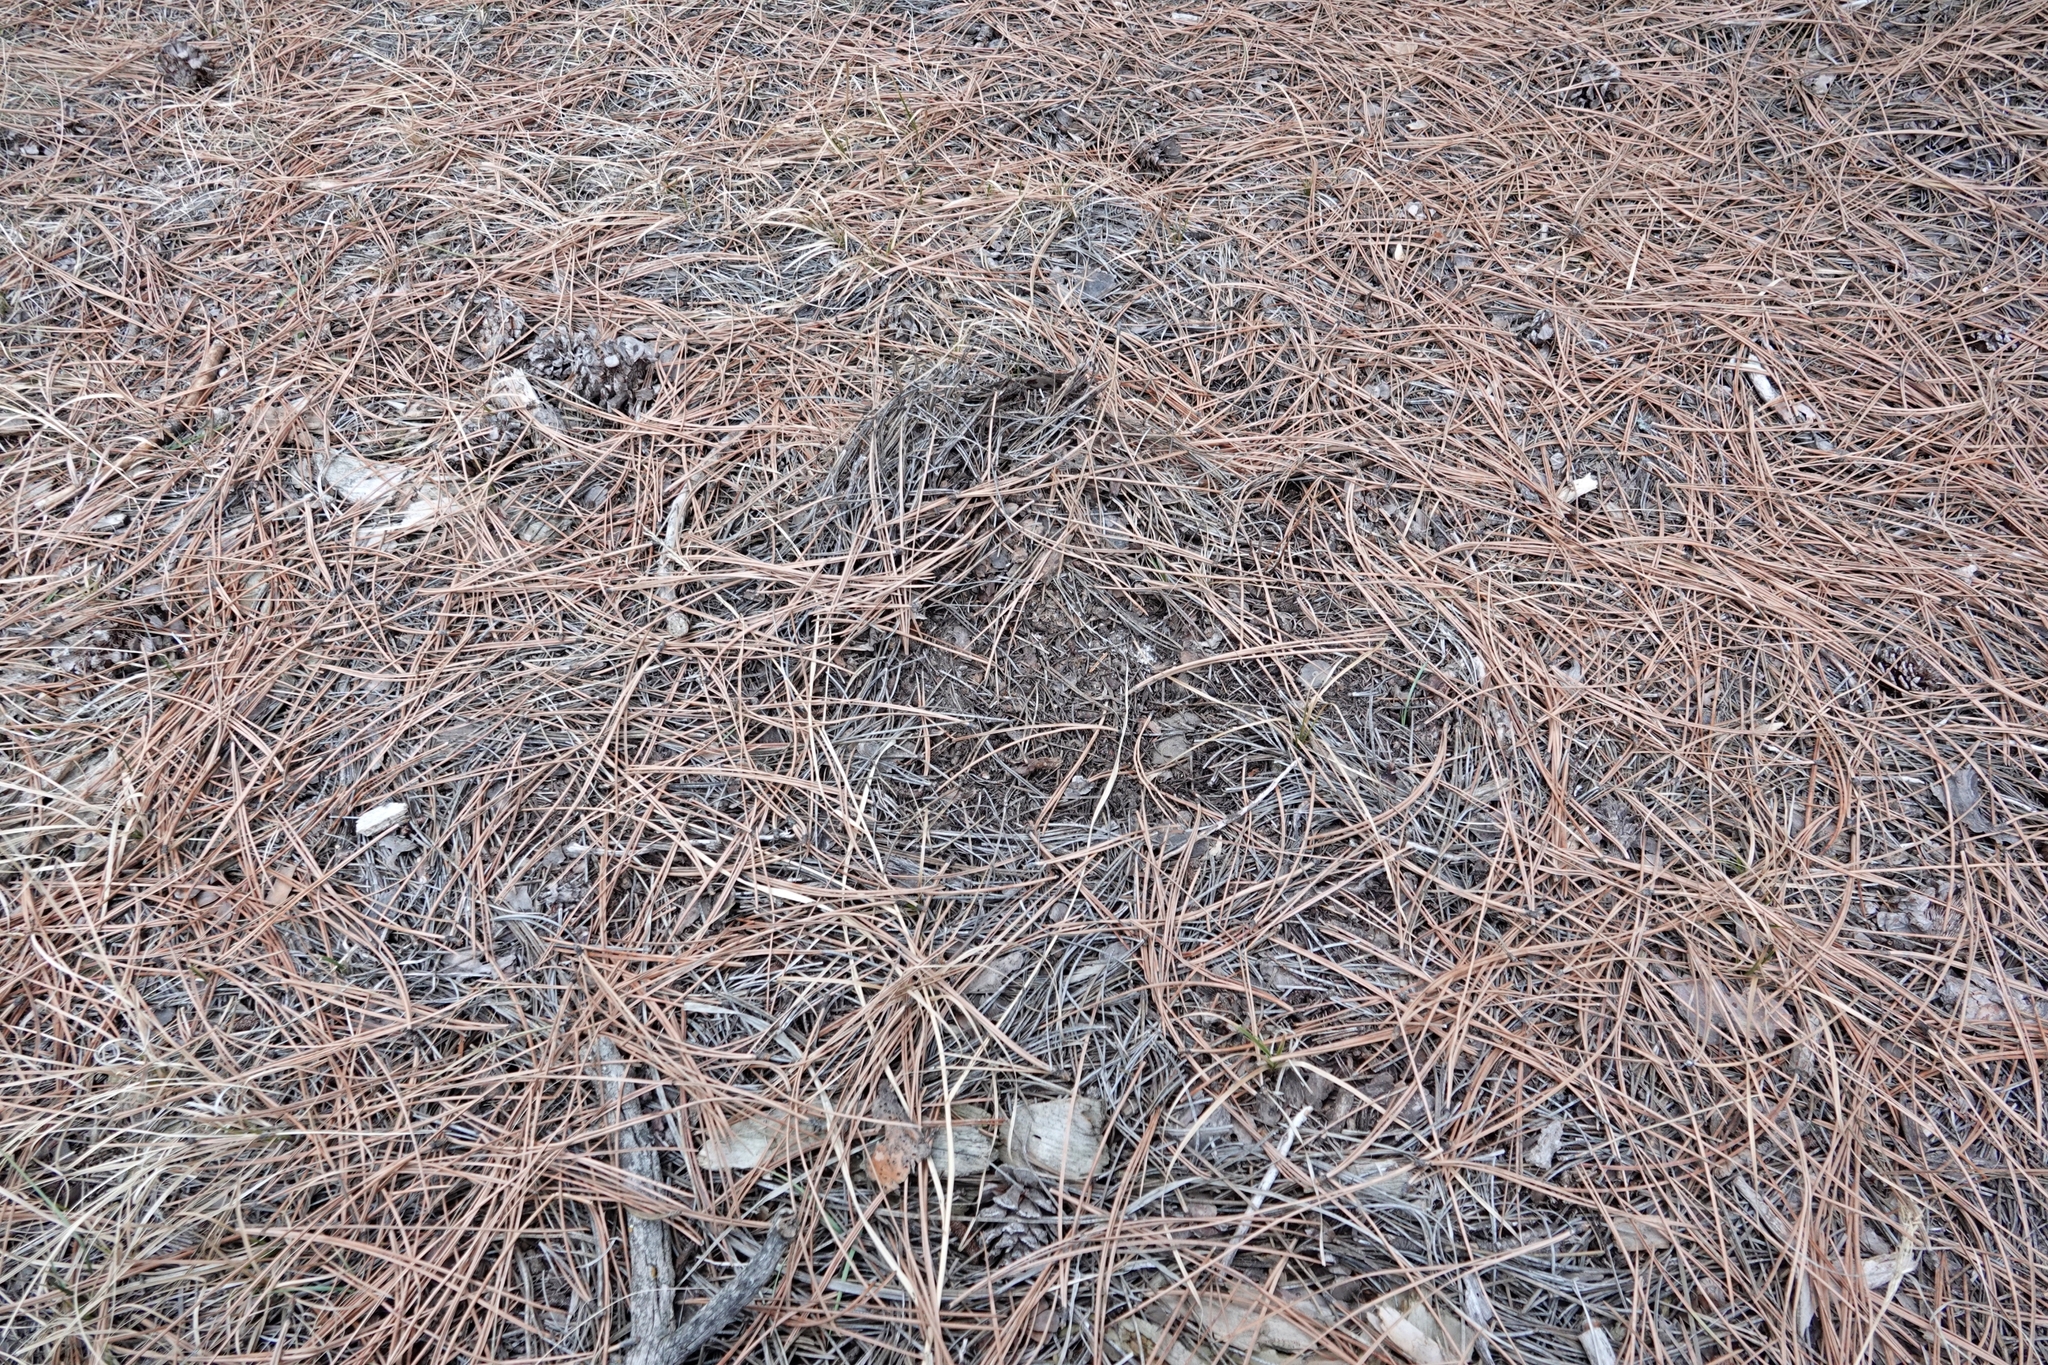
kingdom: Animalia
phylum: Chordata
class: Mammalia
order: Carnivora
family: Felidae
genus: Puma
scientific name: Puma concolor
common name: Puma
